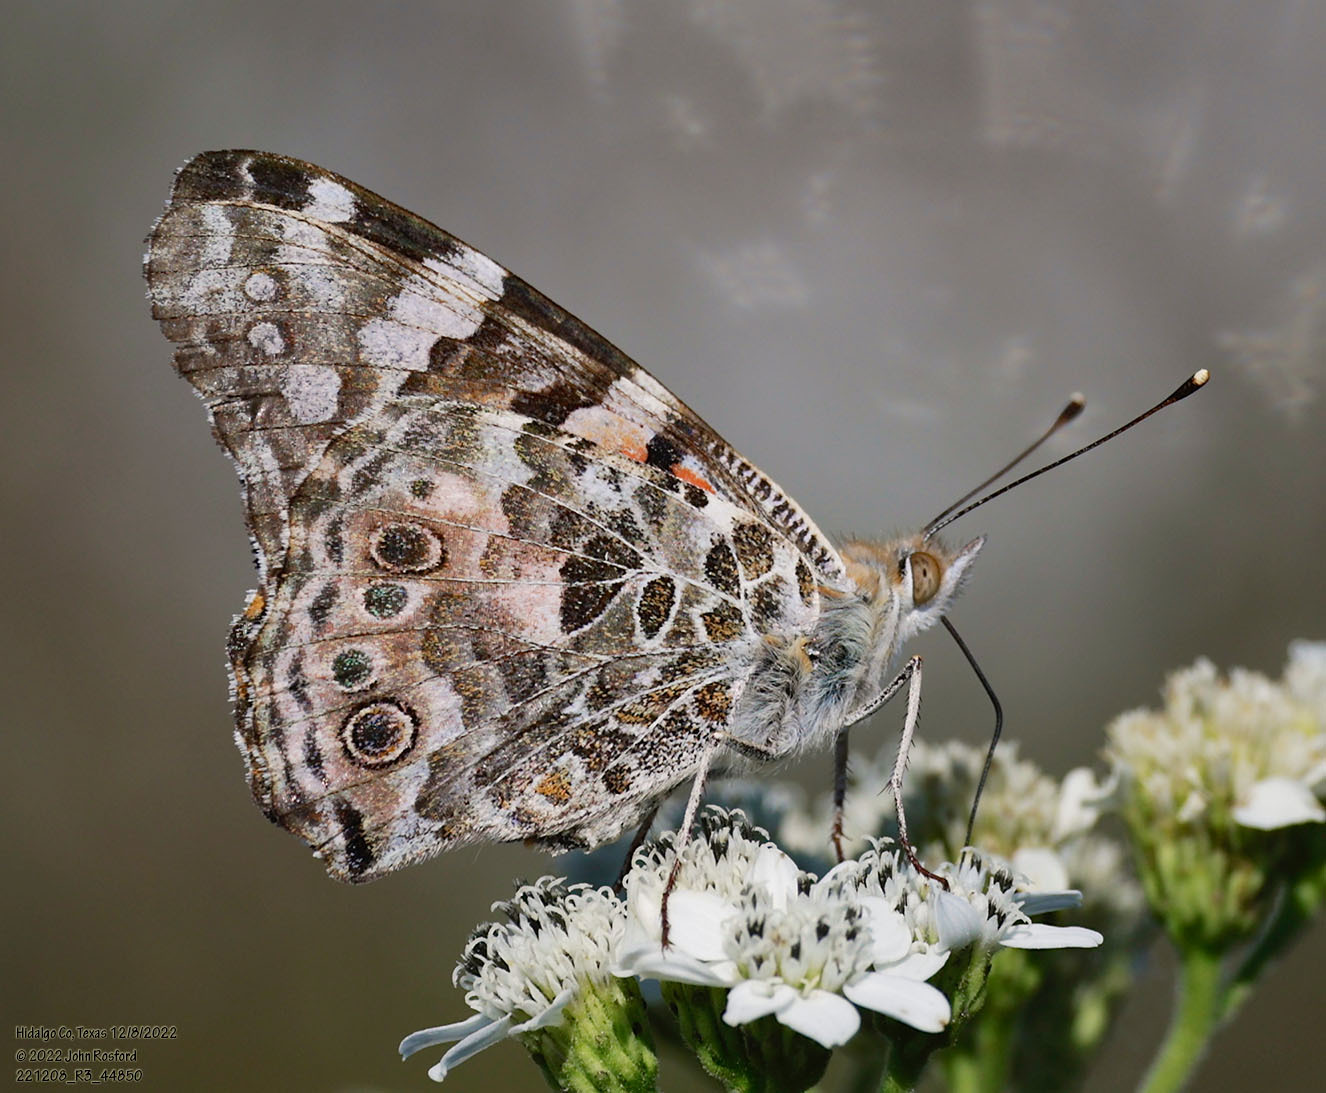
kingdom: Animalia
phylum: Arthropoda
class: Insecta
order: Lepidoptera
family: Nymphalidae
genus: Vanessa
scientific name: Vanessa cardui
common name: Painted lady
